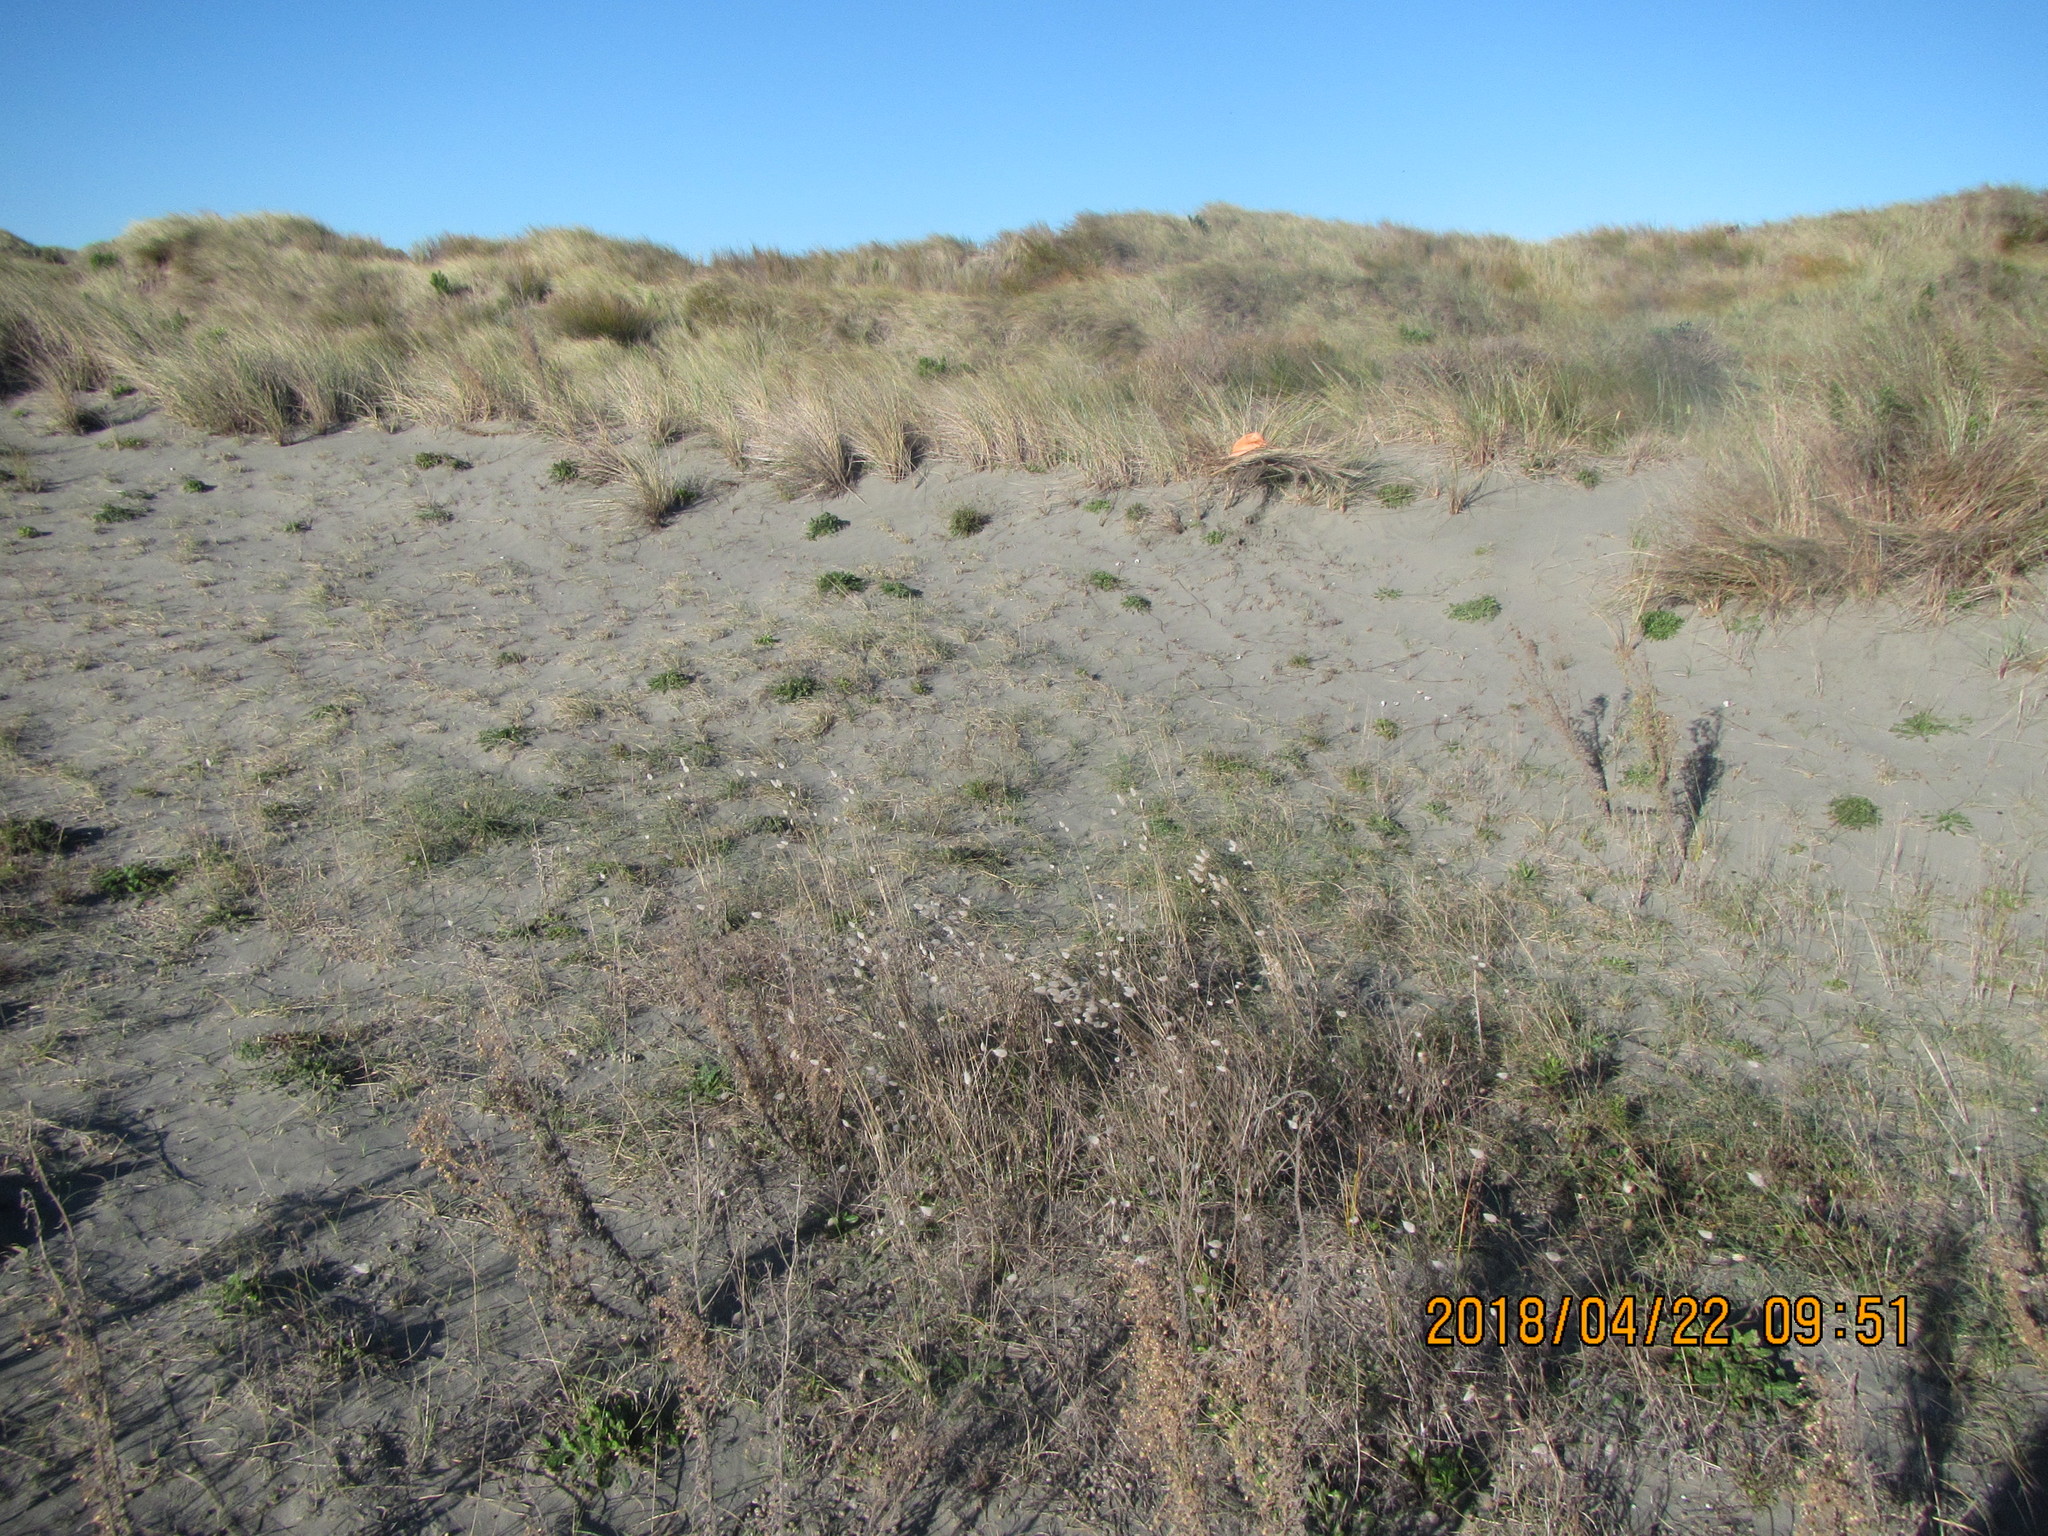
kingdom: Animalia
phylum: Arthropoda
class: Arachnida
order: Araneae
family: Theridiidae
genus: Steatoda
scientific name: Steatoda capensis
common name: Cobweb weaver
